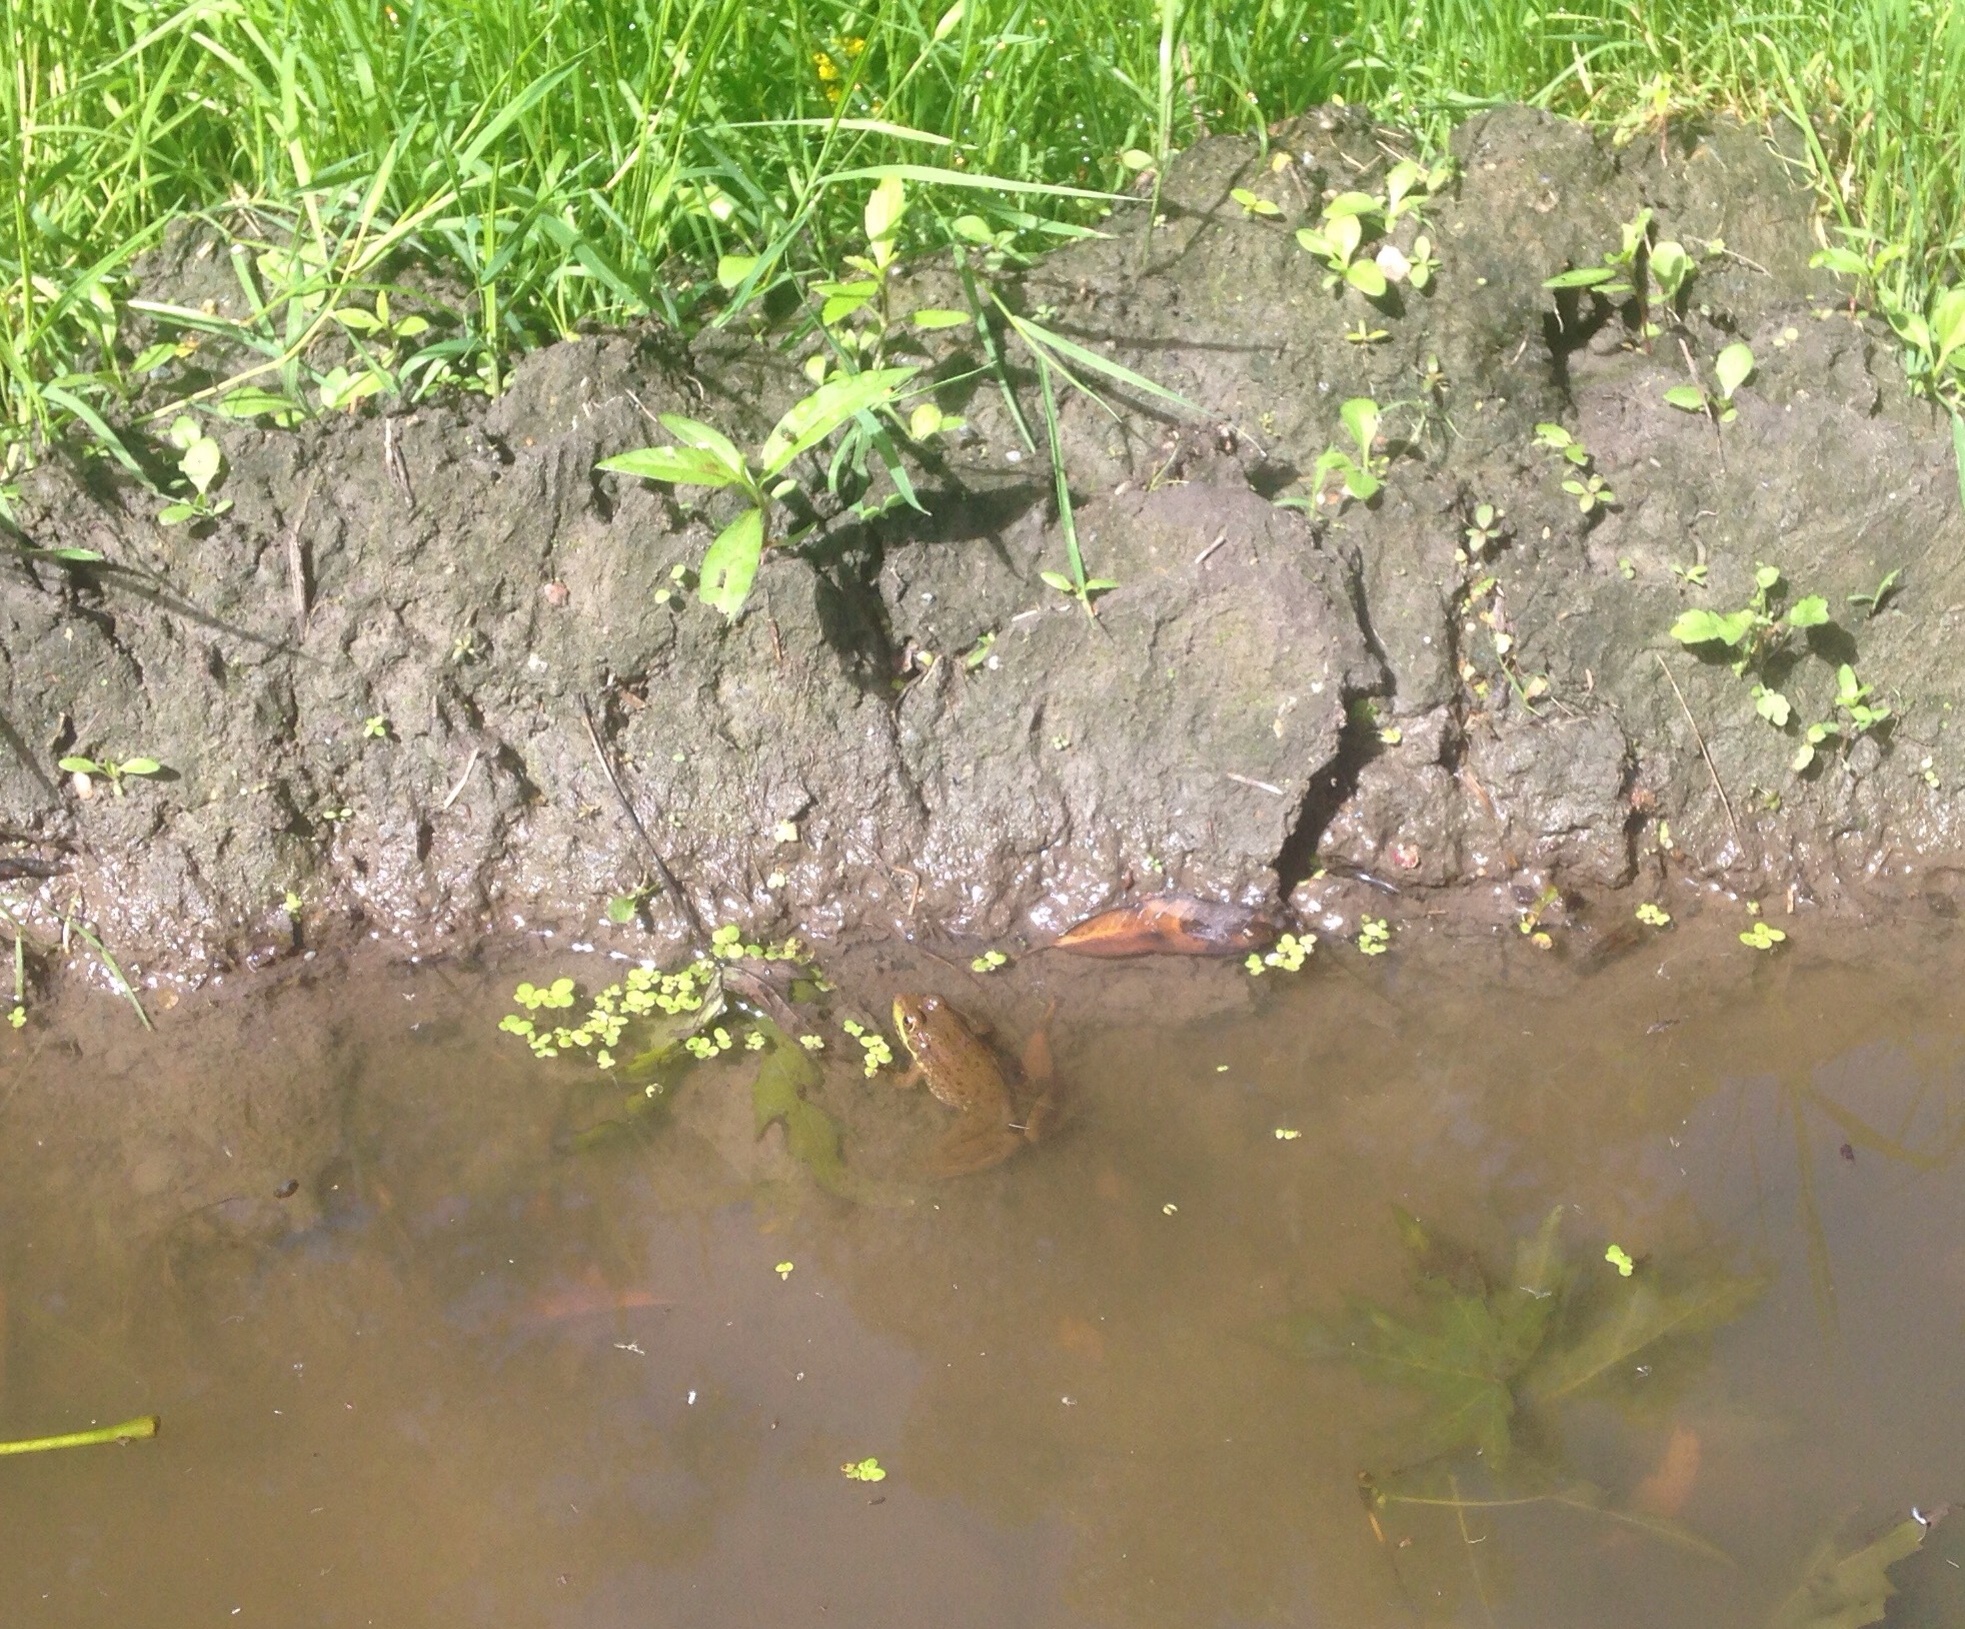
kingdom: Animalia
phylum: Chordata
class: Amphibia
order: Anura
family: Ranidae
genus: Lithobates
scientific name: Lithobates clamitans
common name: Green frog
